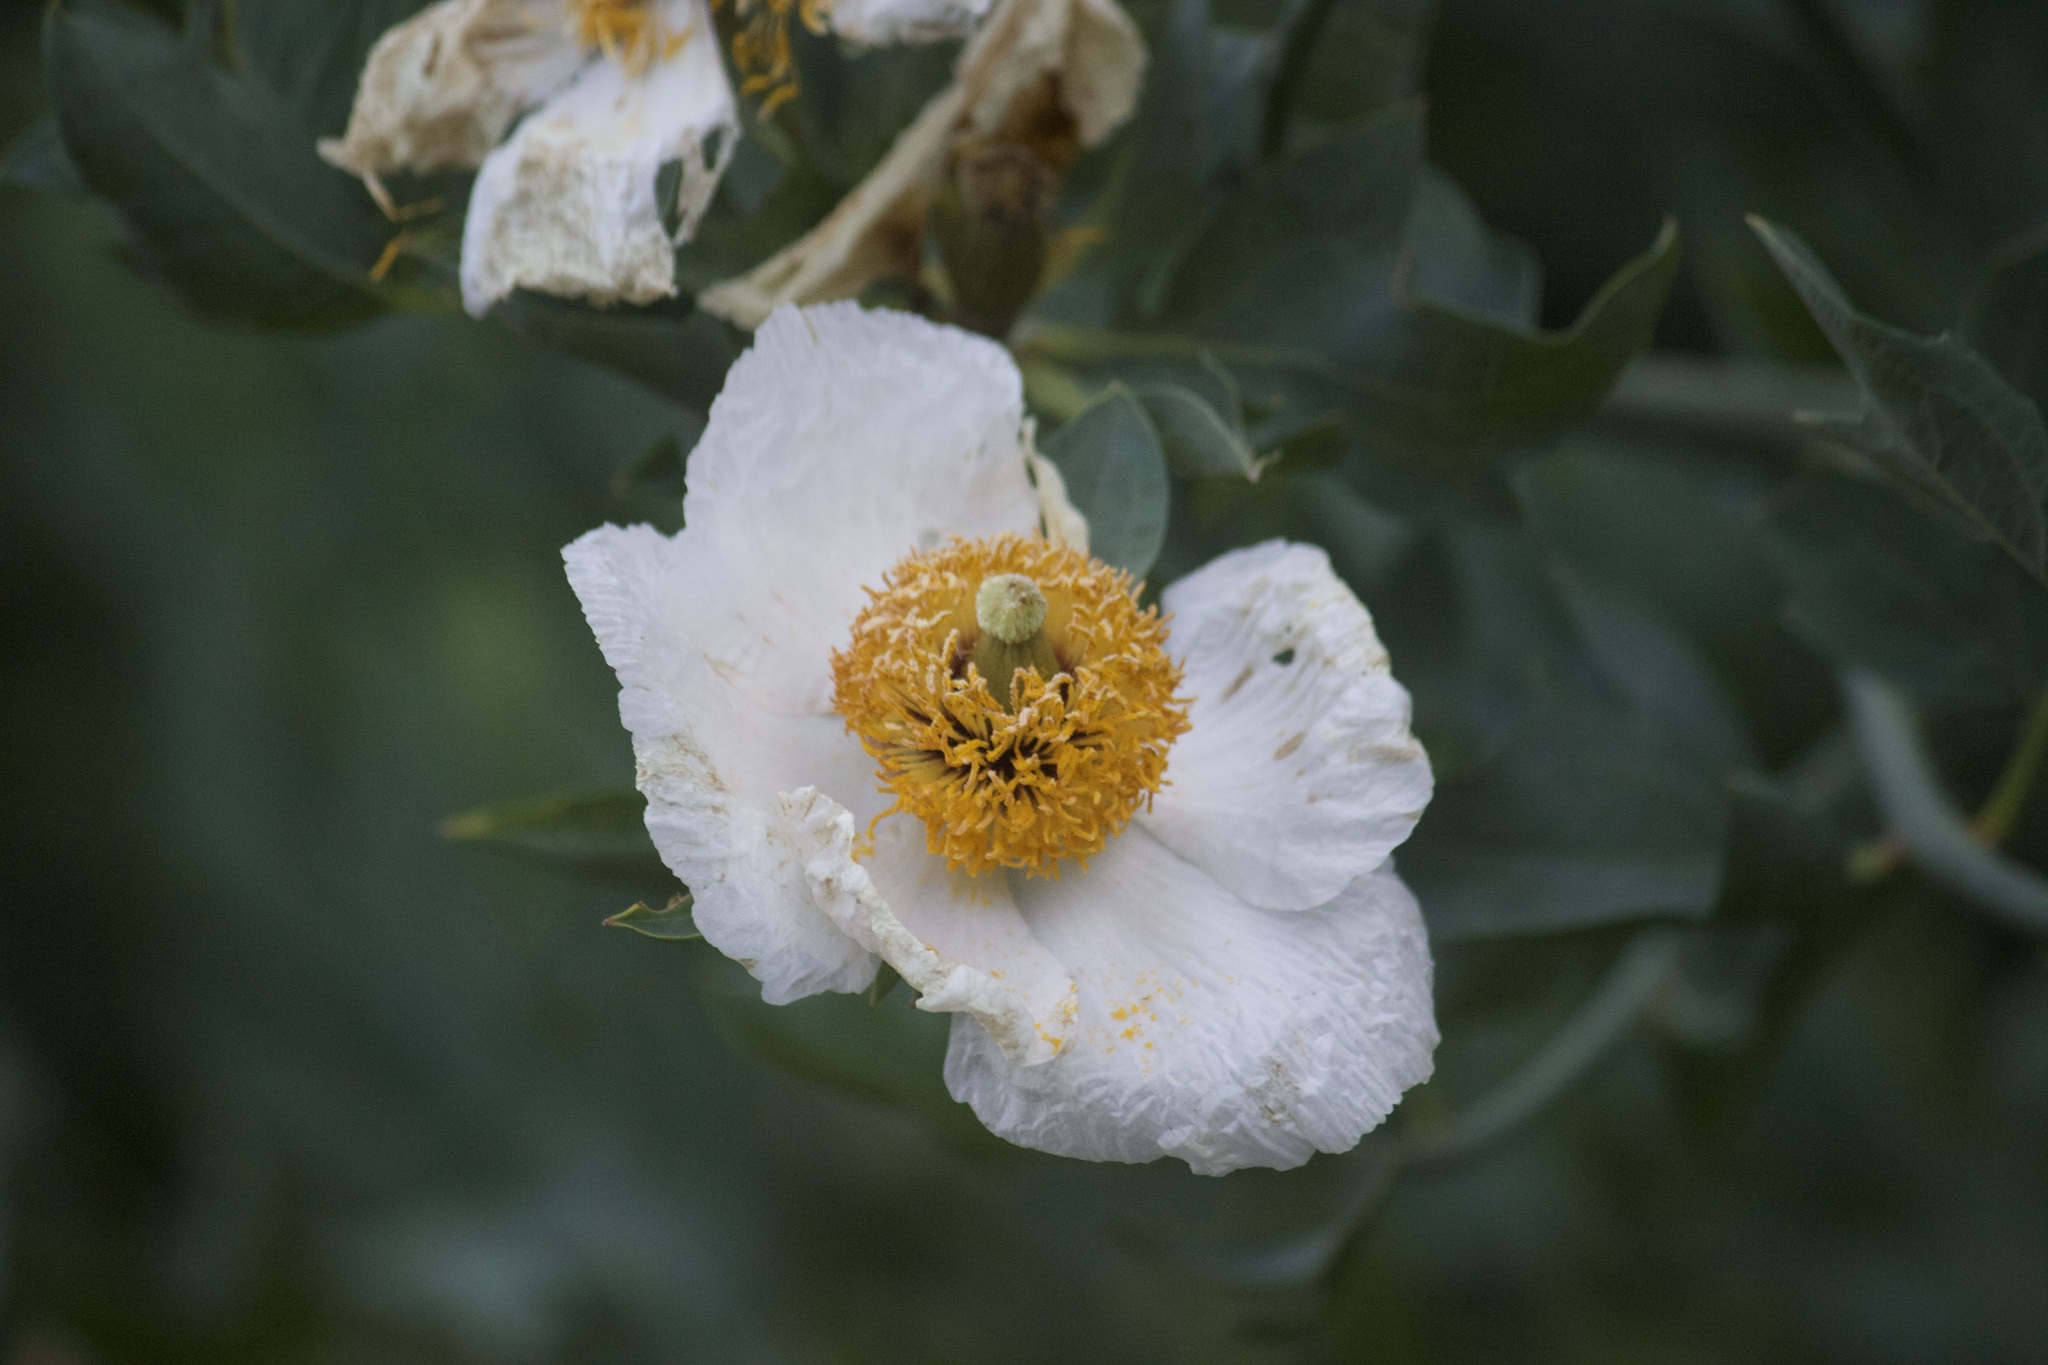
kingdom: Plantae
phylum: Tracheophyta
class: Magnoliopsida
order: Ranunculales
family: Papaveraceae
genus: Romneya
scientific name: Romneya coulteri
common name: California tree-poppy
